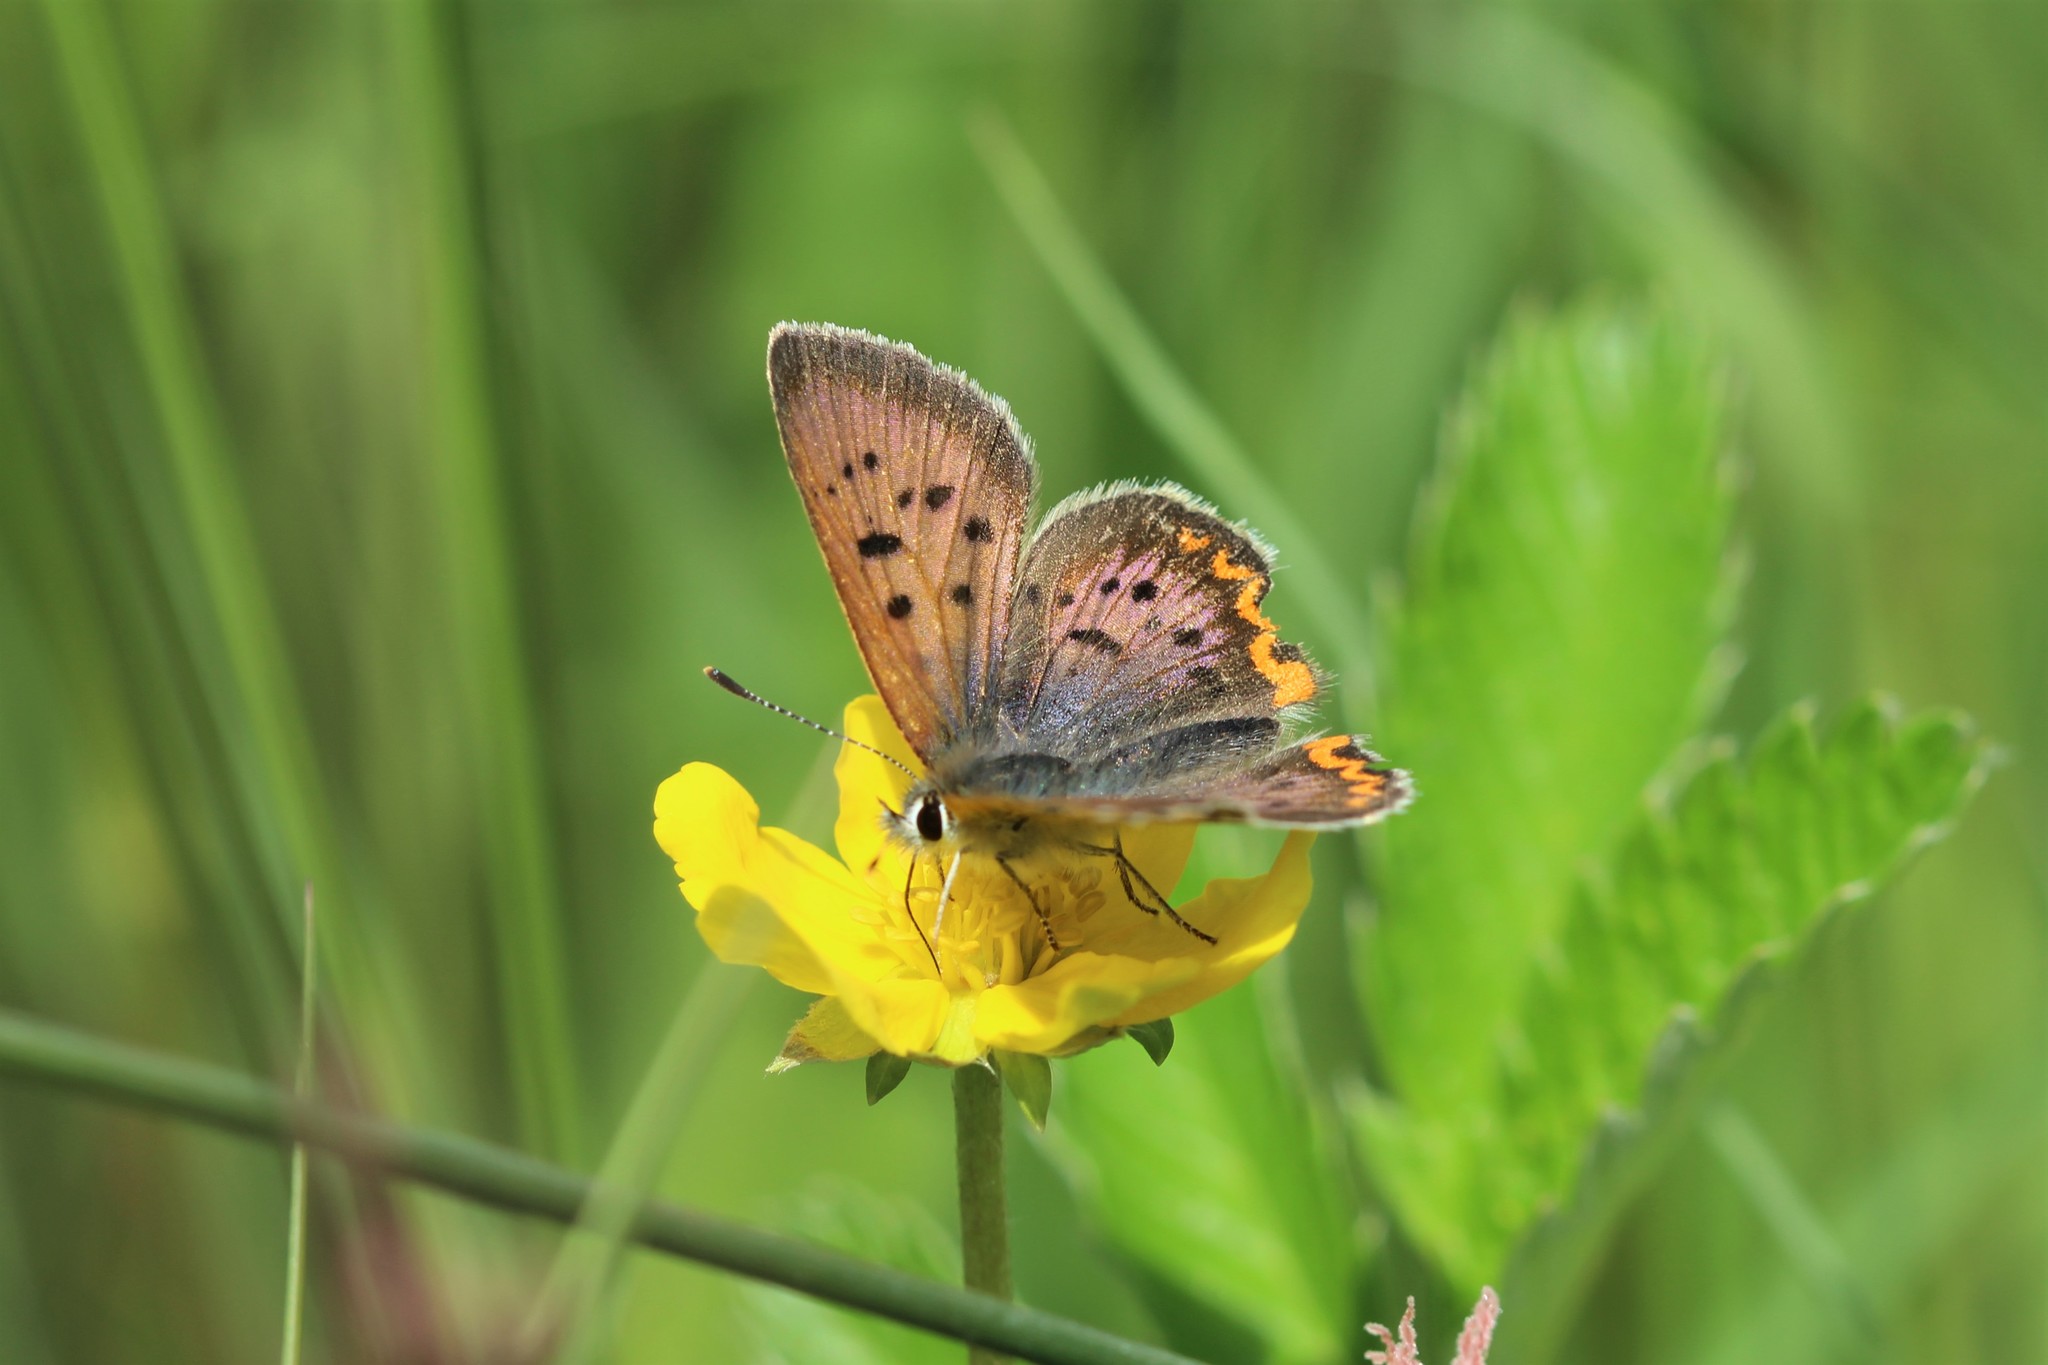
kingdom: Animalia
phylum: Arthropoda
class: Insecta
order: Lepidoptera
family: Lycaenidae
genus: Tharsalea
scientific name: Tharsalea helloides
